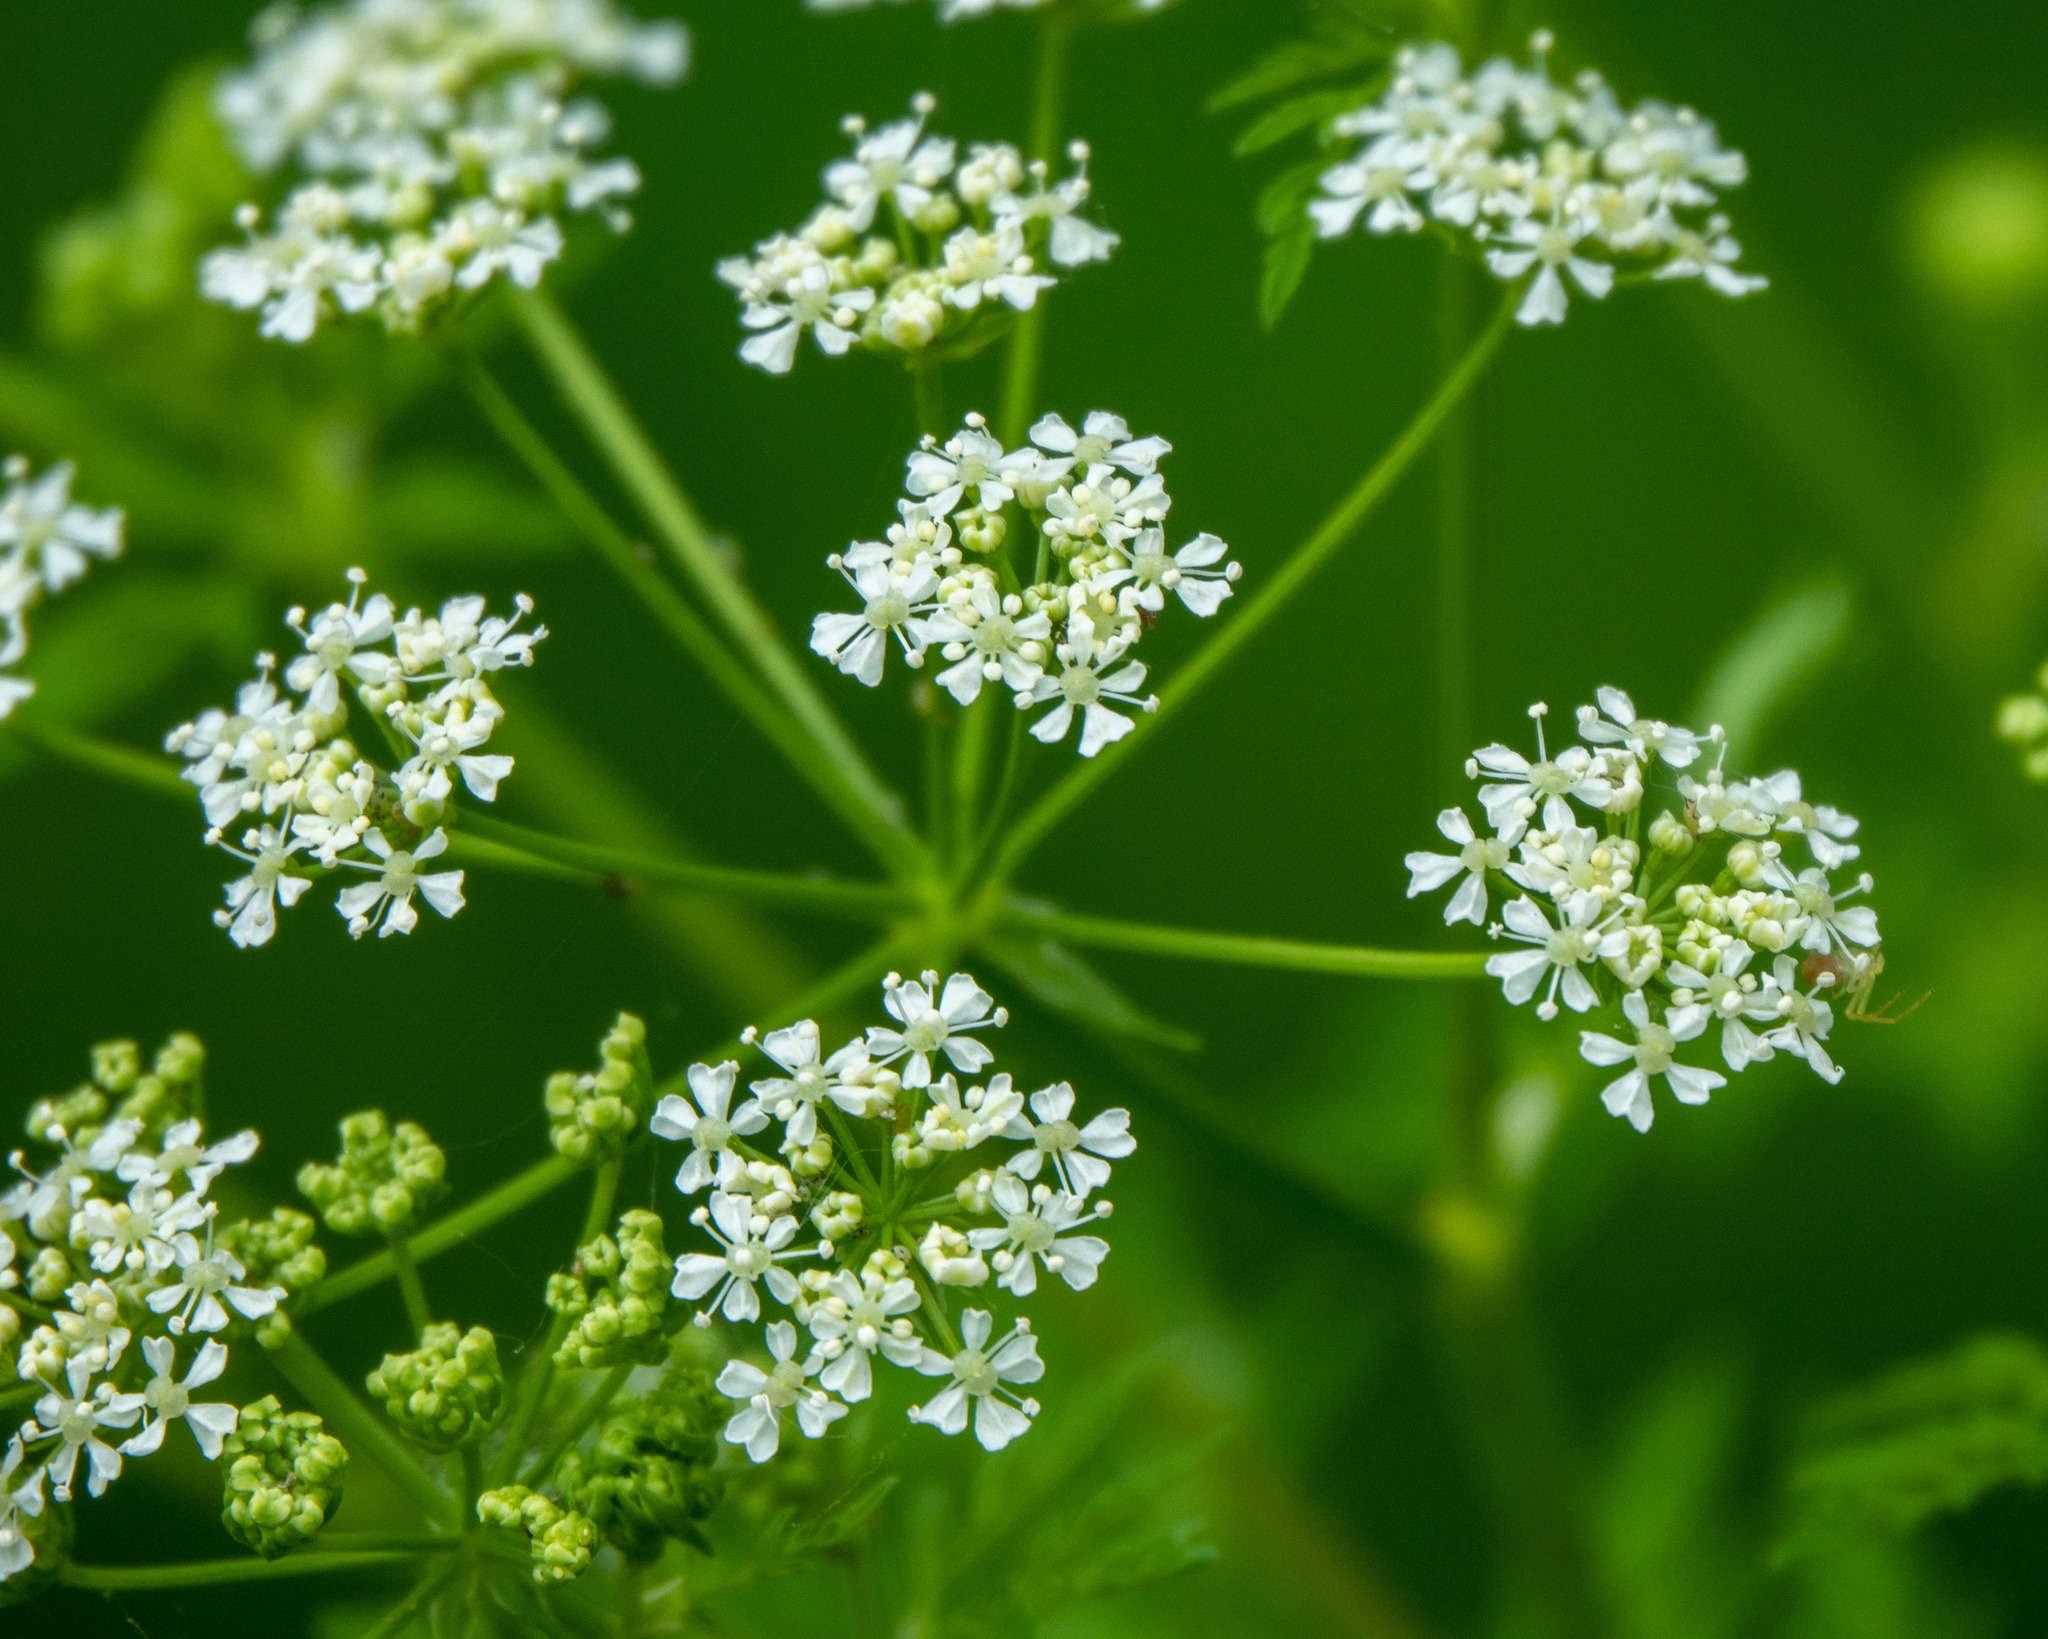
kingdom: Plantae
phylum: Tracheophyta
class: Magnoliopsida
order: Apiales
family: Apiaceae
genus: Conium
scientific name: Conium maculatum
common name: Hemlock
